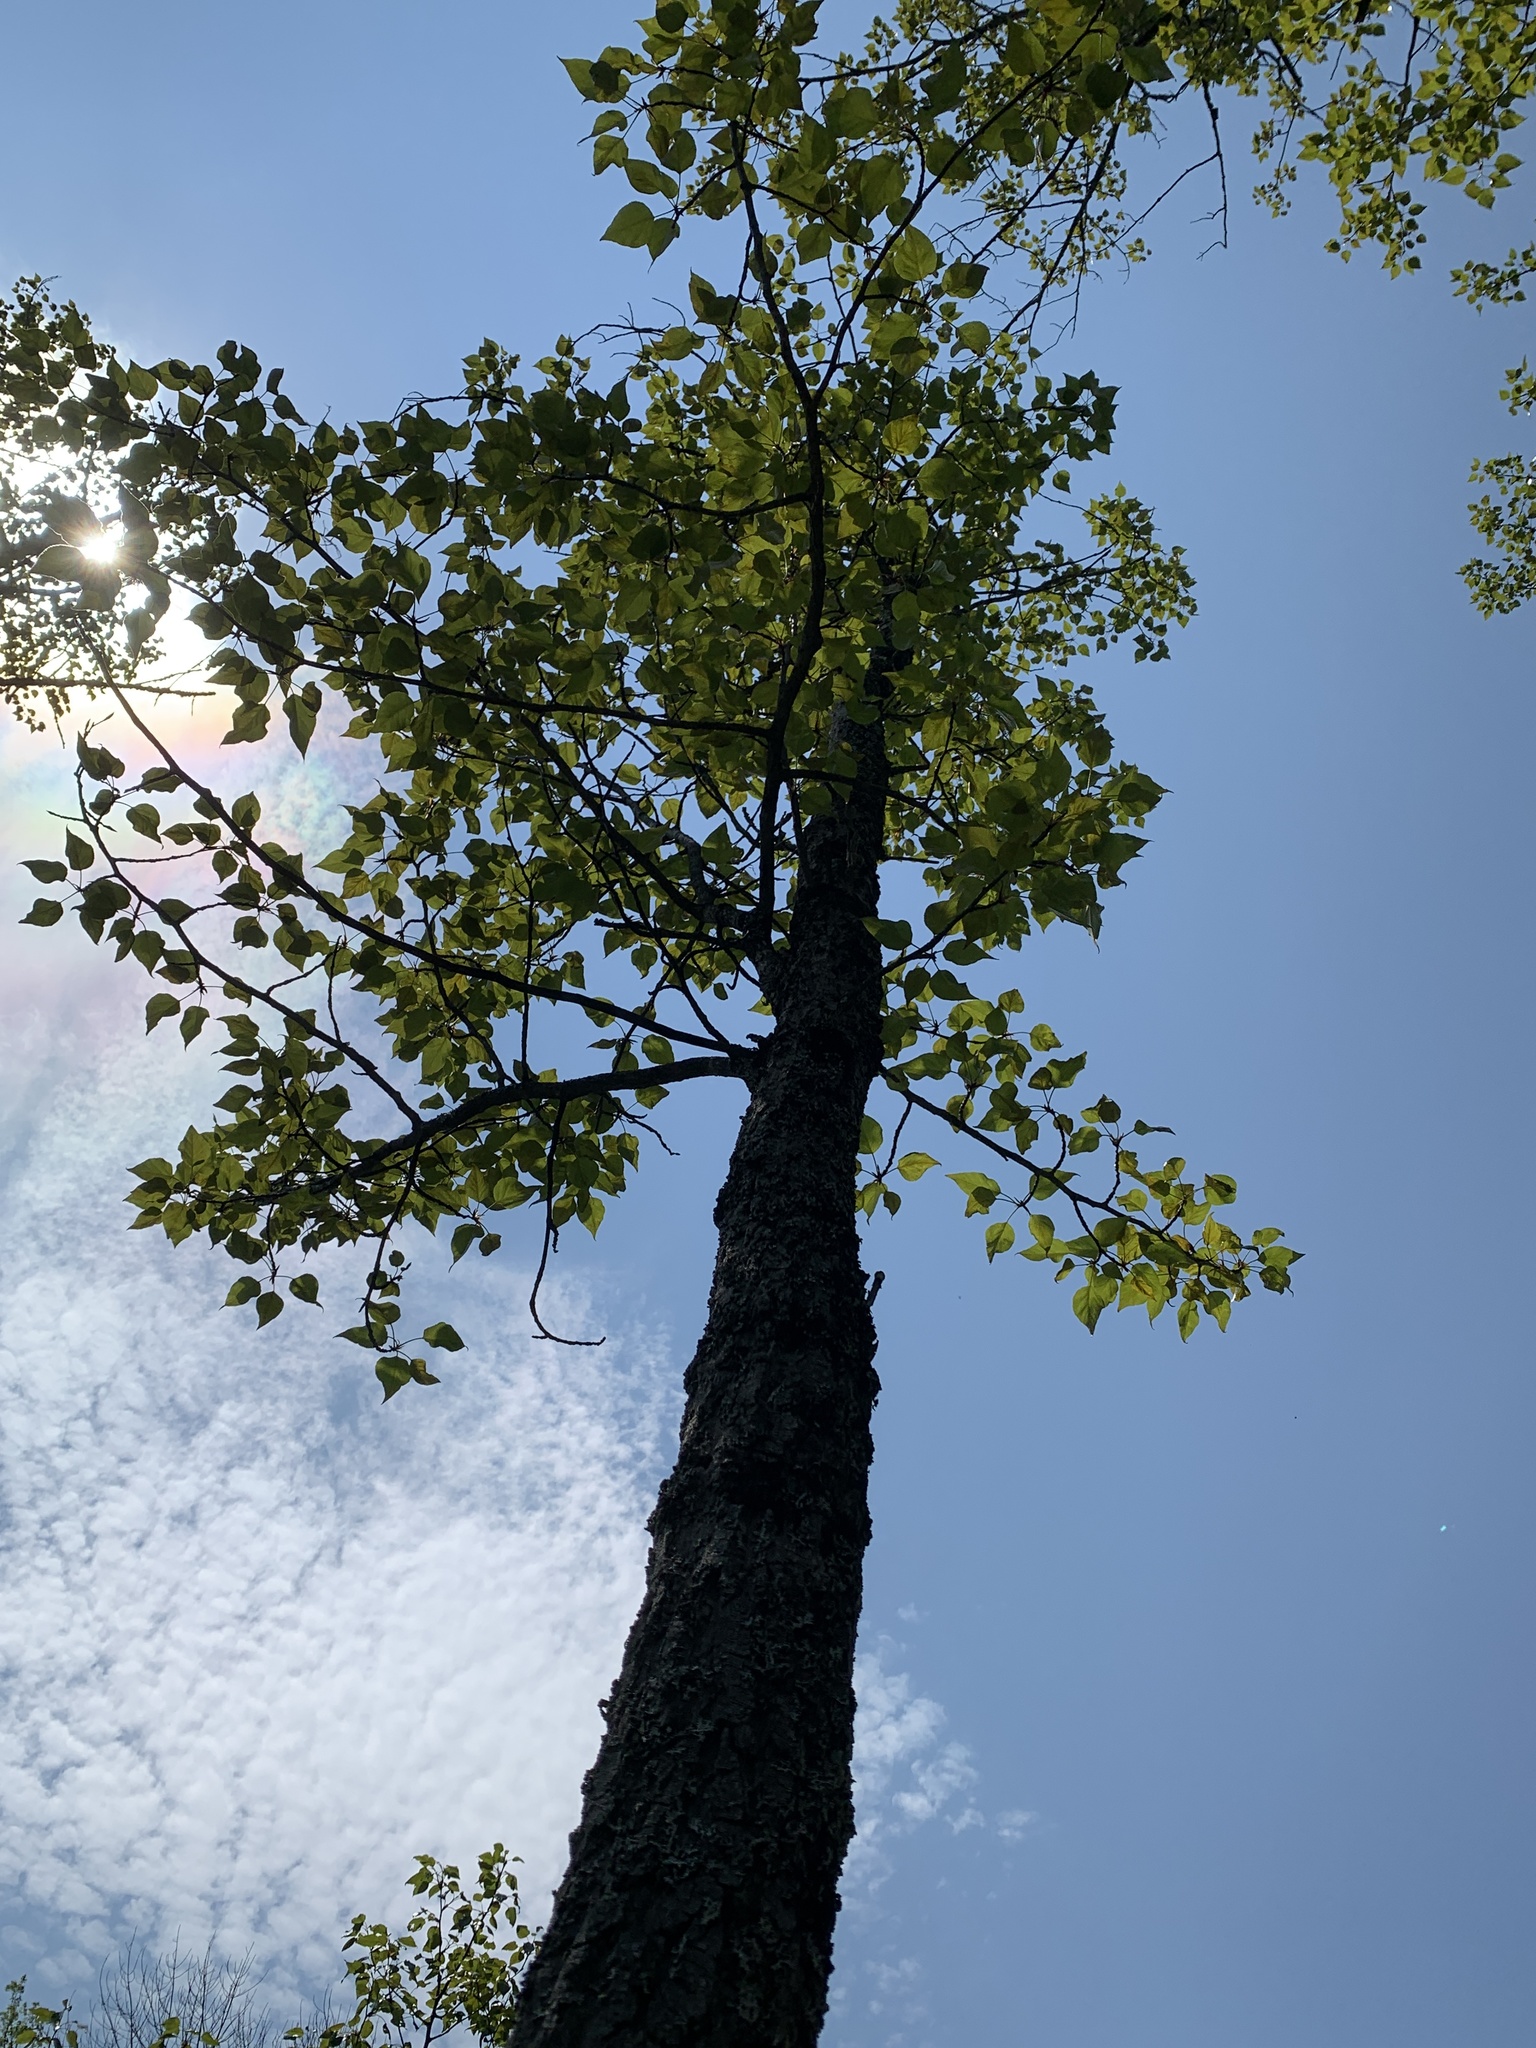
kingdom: Plantae
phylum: Tracheophyta
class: Magnoliopsida
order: Malpighiales
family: Salicaceae
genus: Populus
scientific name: Populus balsamifera
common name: Balsam poplar
